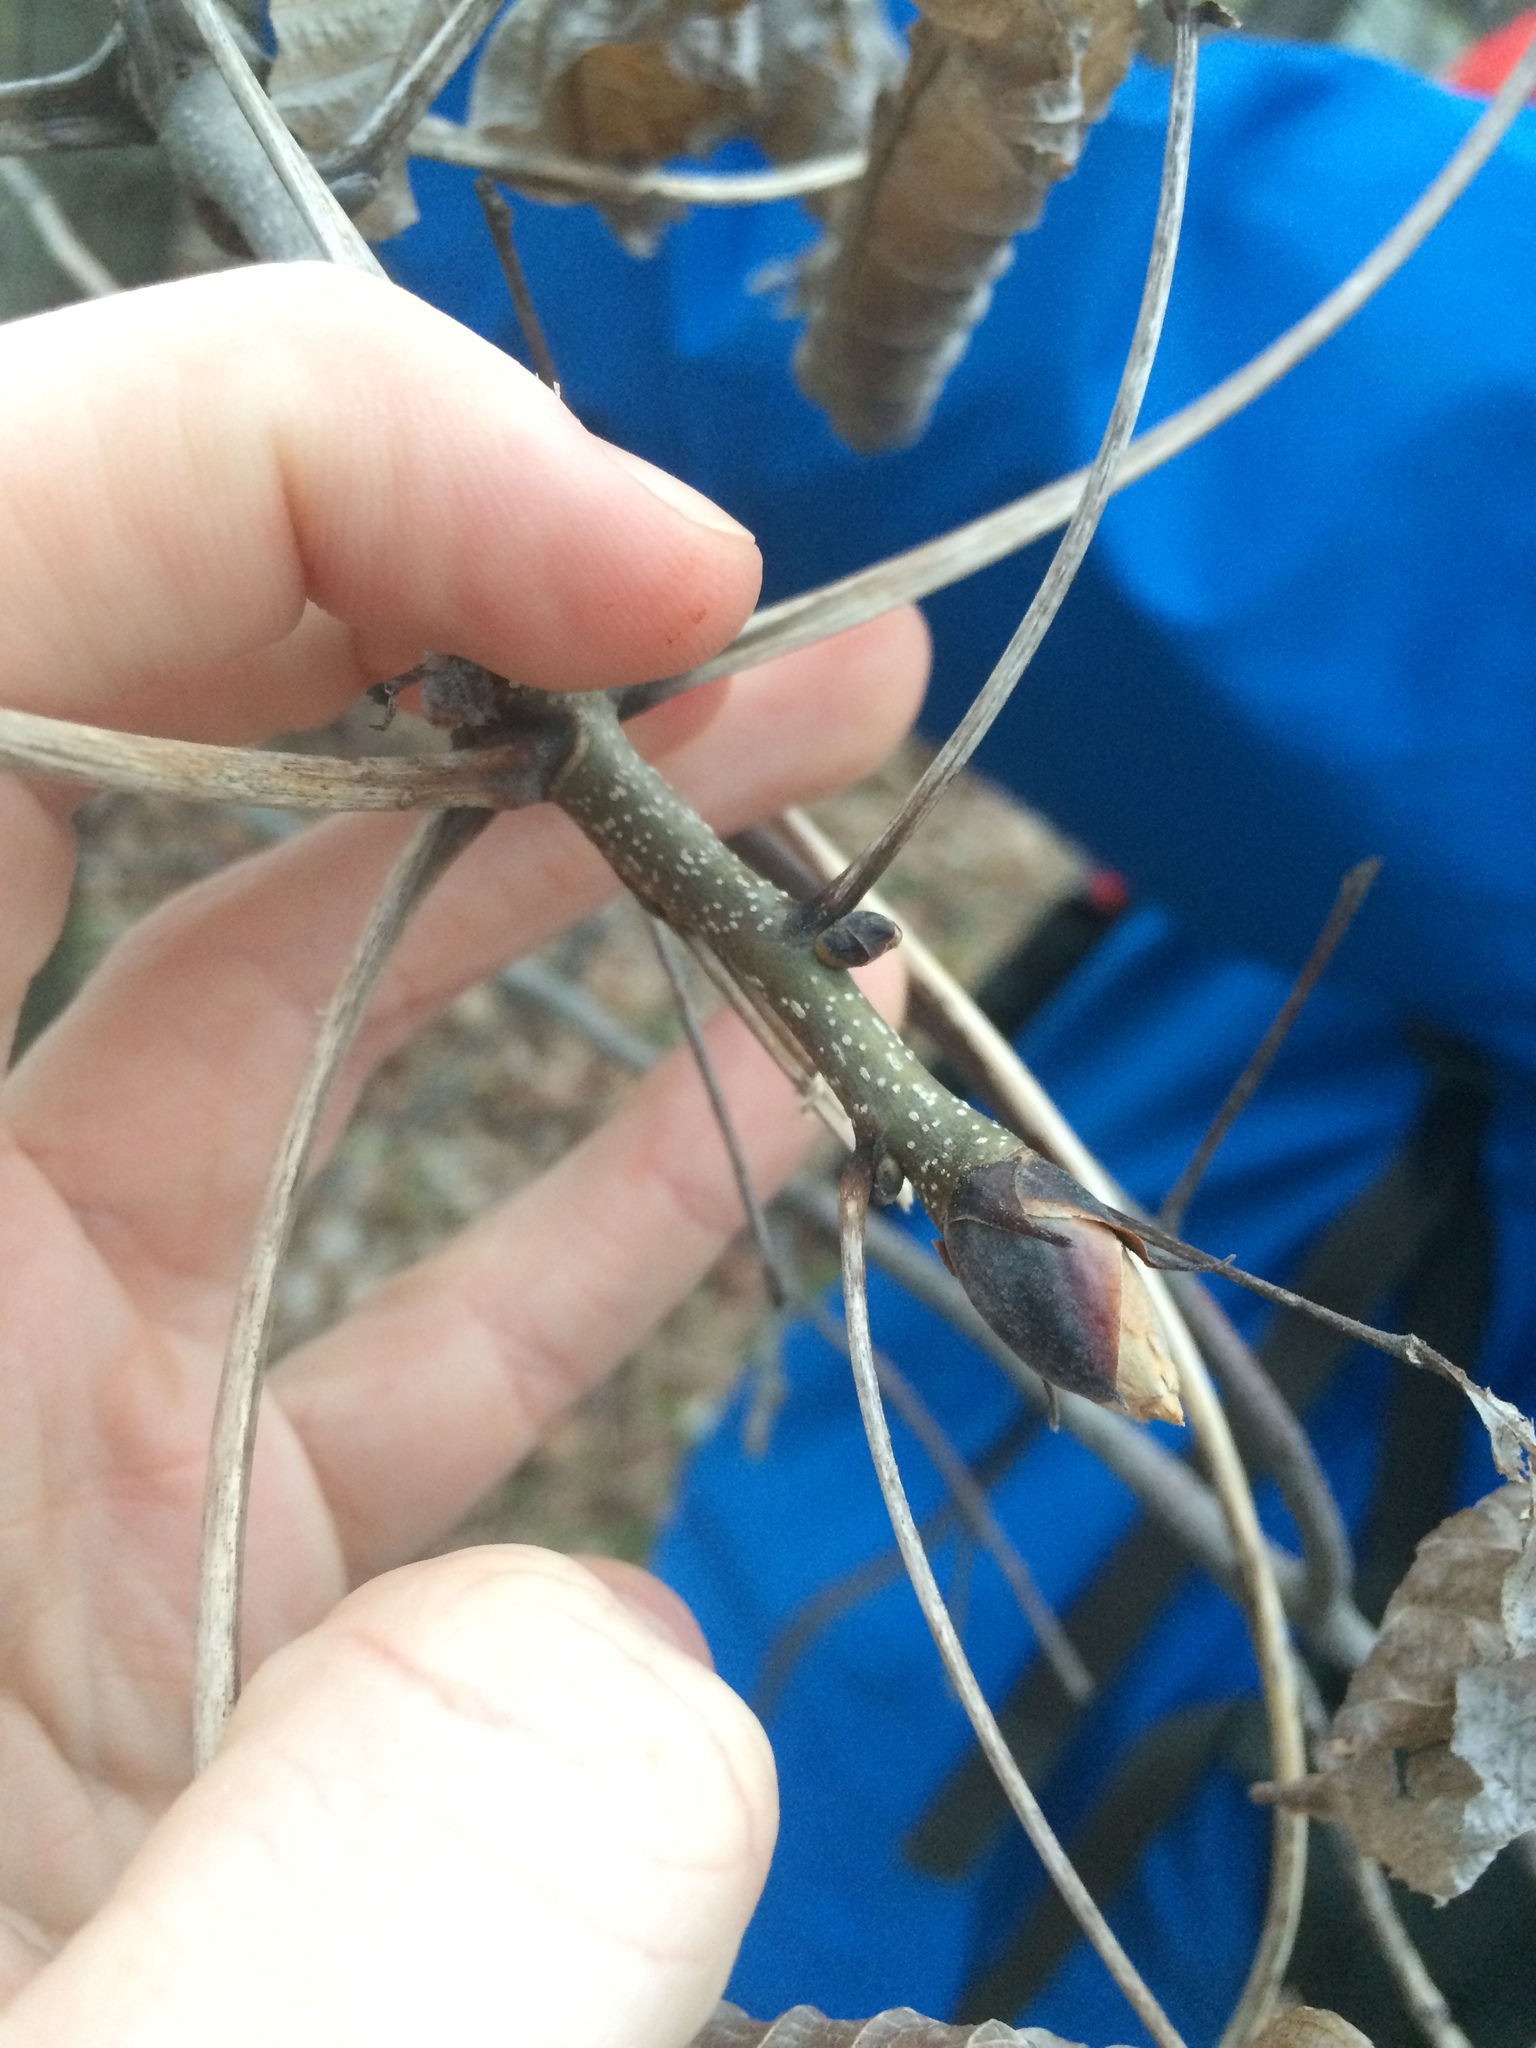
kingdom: Plantae
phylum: Tracheophyta
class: Magnoliopsida
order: Fagales
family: Juglandaceae
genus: Carya
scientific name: Carya ovata
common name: Shagbark hickory
